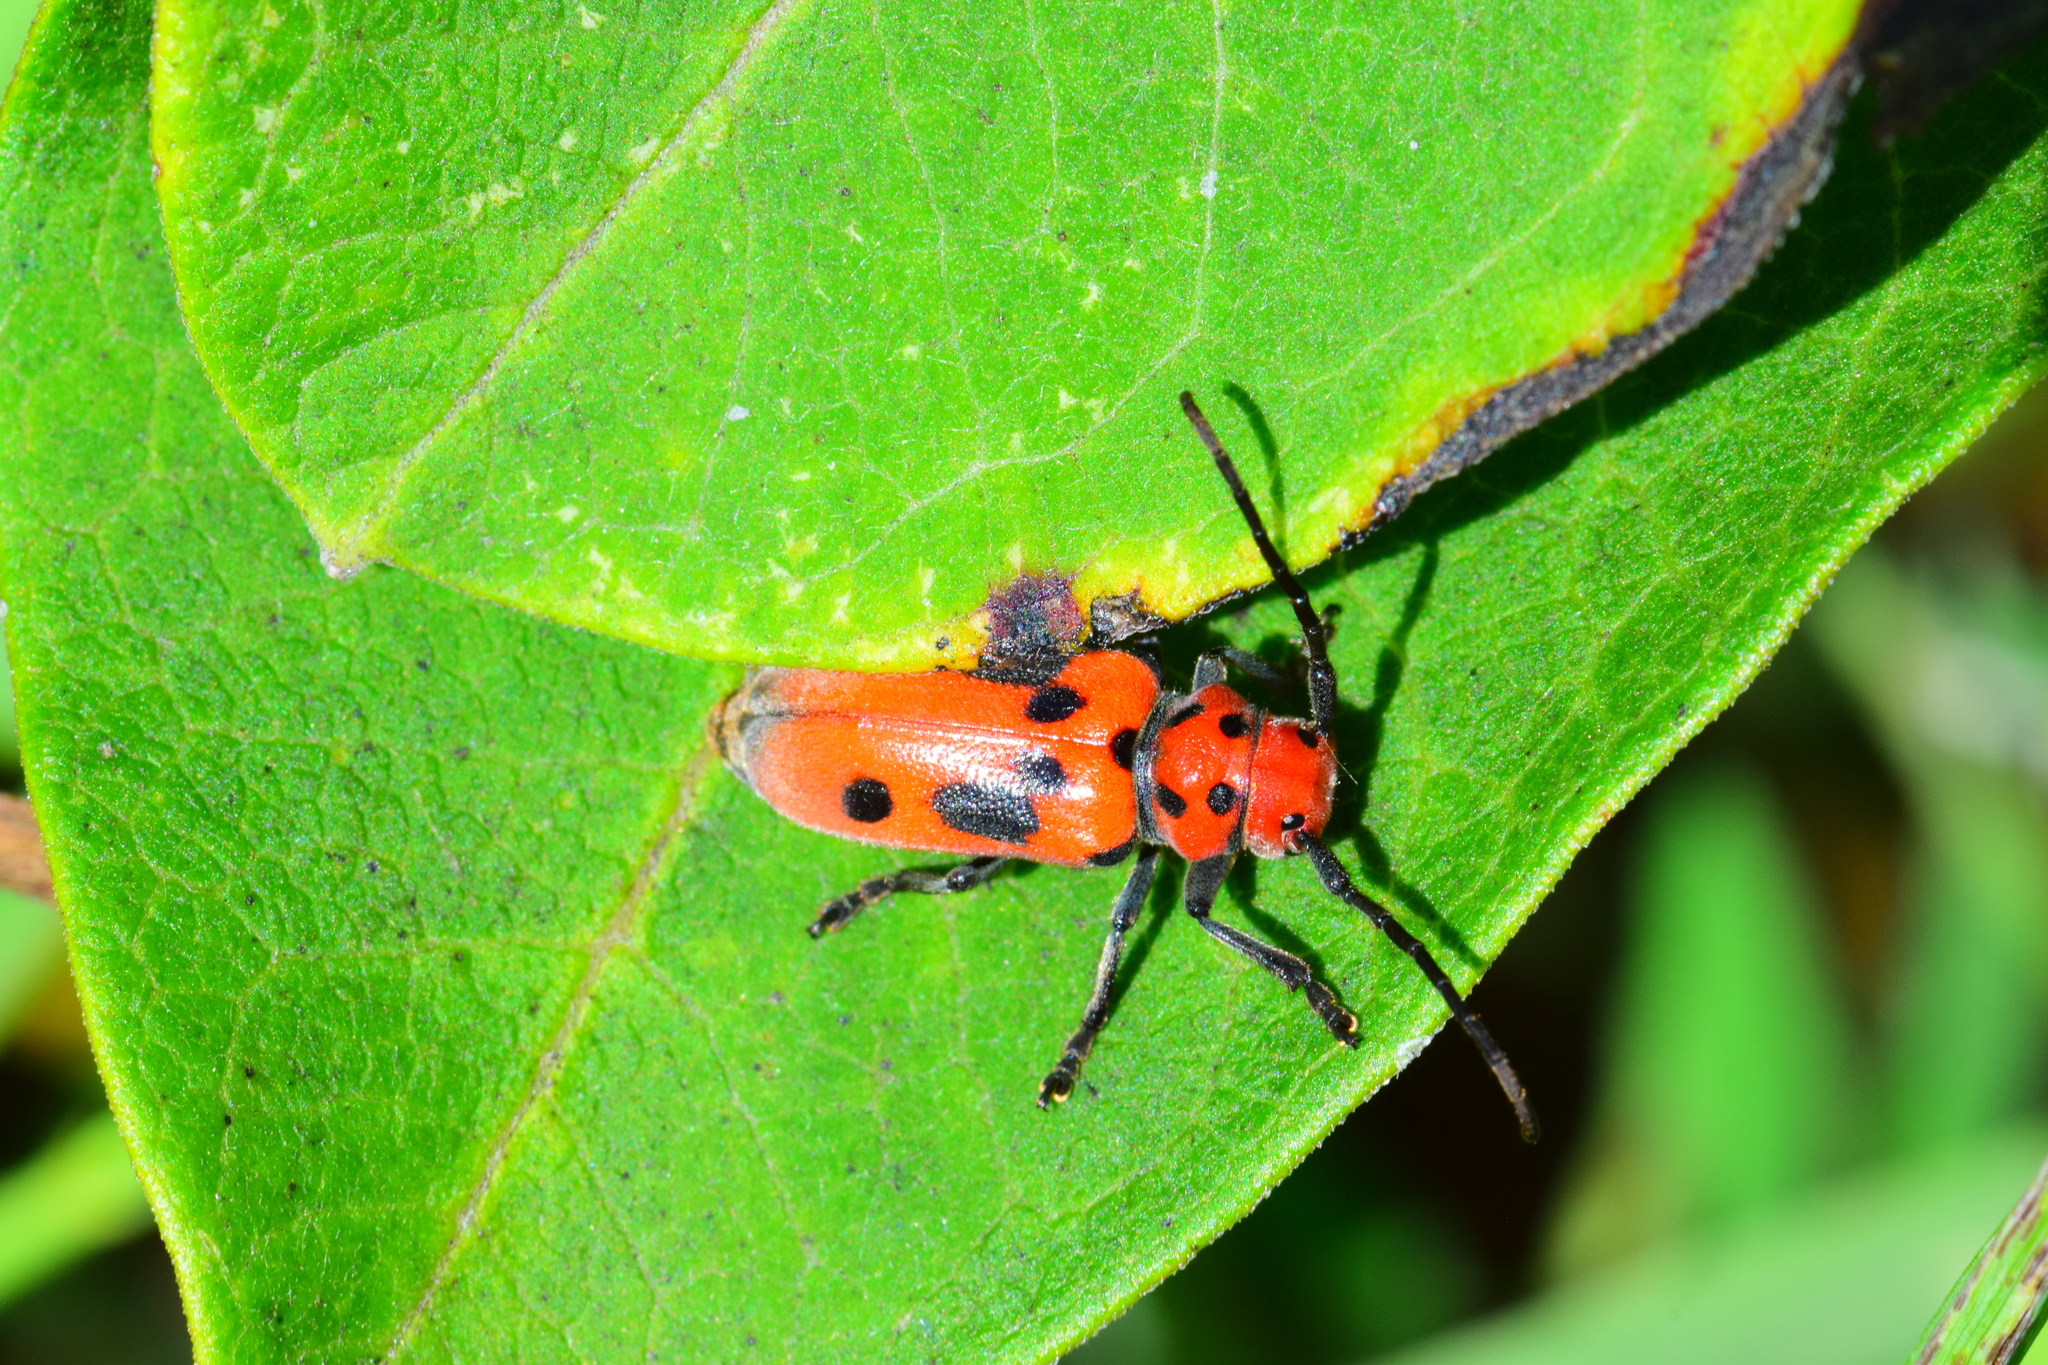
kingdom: Animalia
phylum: Arthropoda
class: Insecta
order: Coleoptera
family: Cerambycidae
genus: Tetraopes
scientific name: Tetraopes tetrophthalmus
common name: Red milkweed beetle
